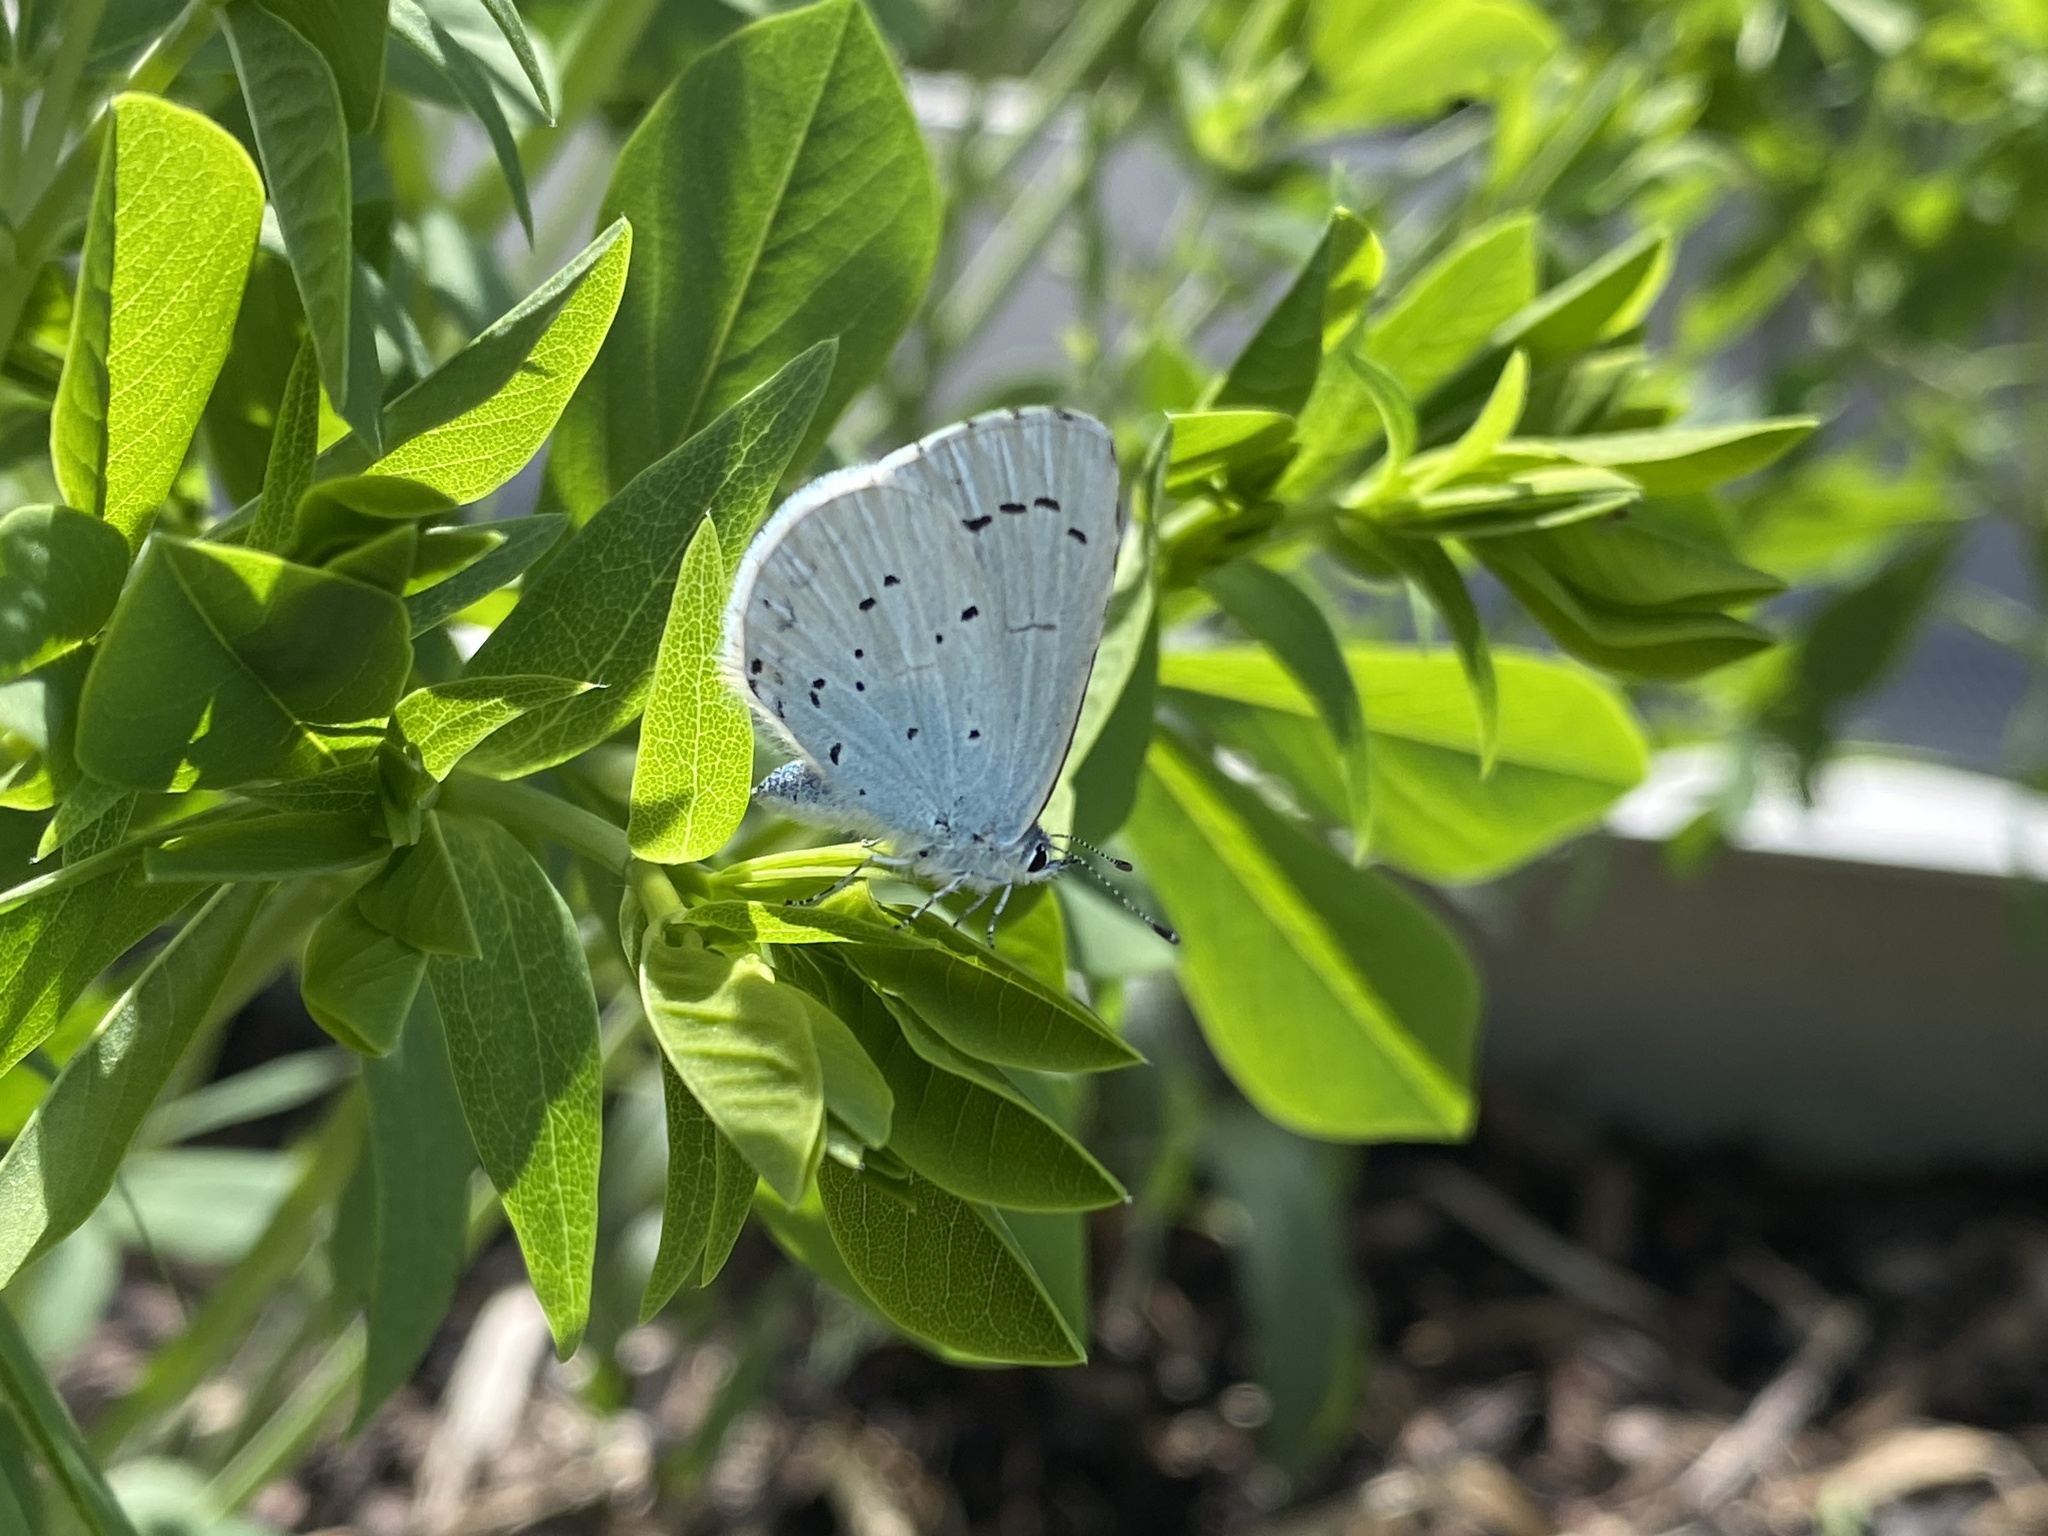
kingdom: Animalia
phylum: Arthropoda
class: Insecta
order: Lepidoptera
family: Lycaenidae
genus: Celastrina
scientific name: Celastrina argiolus
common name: Holly blue
